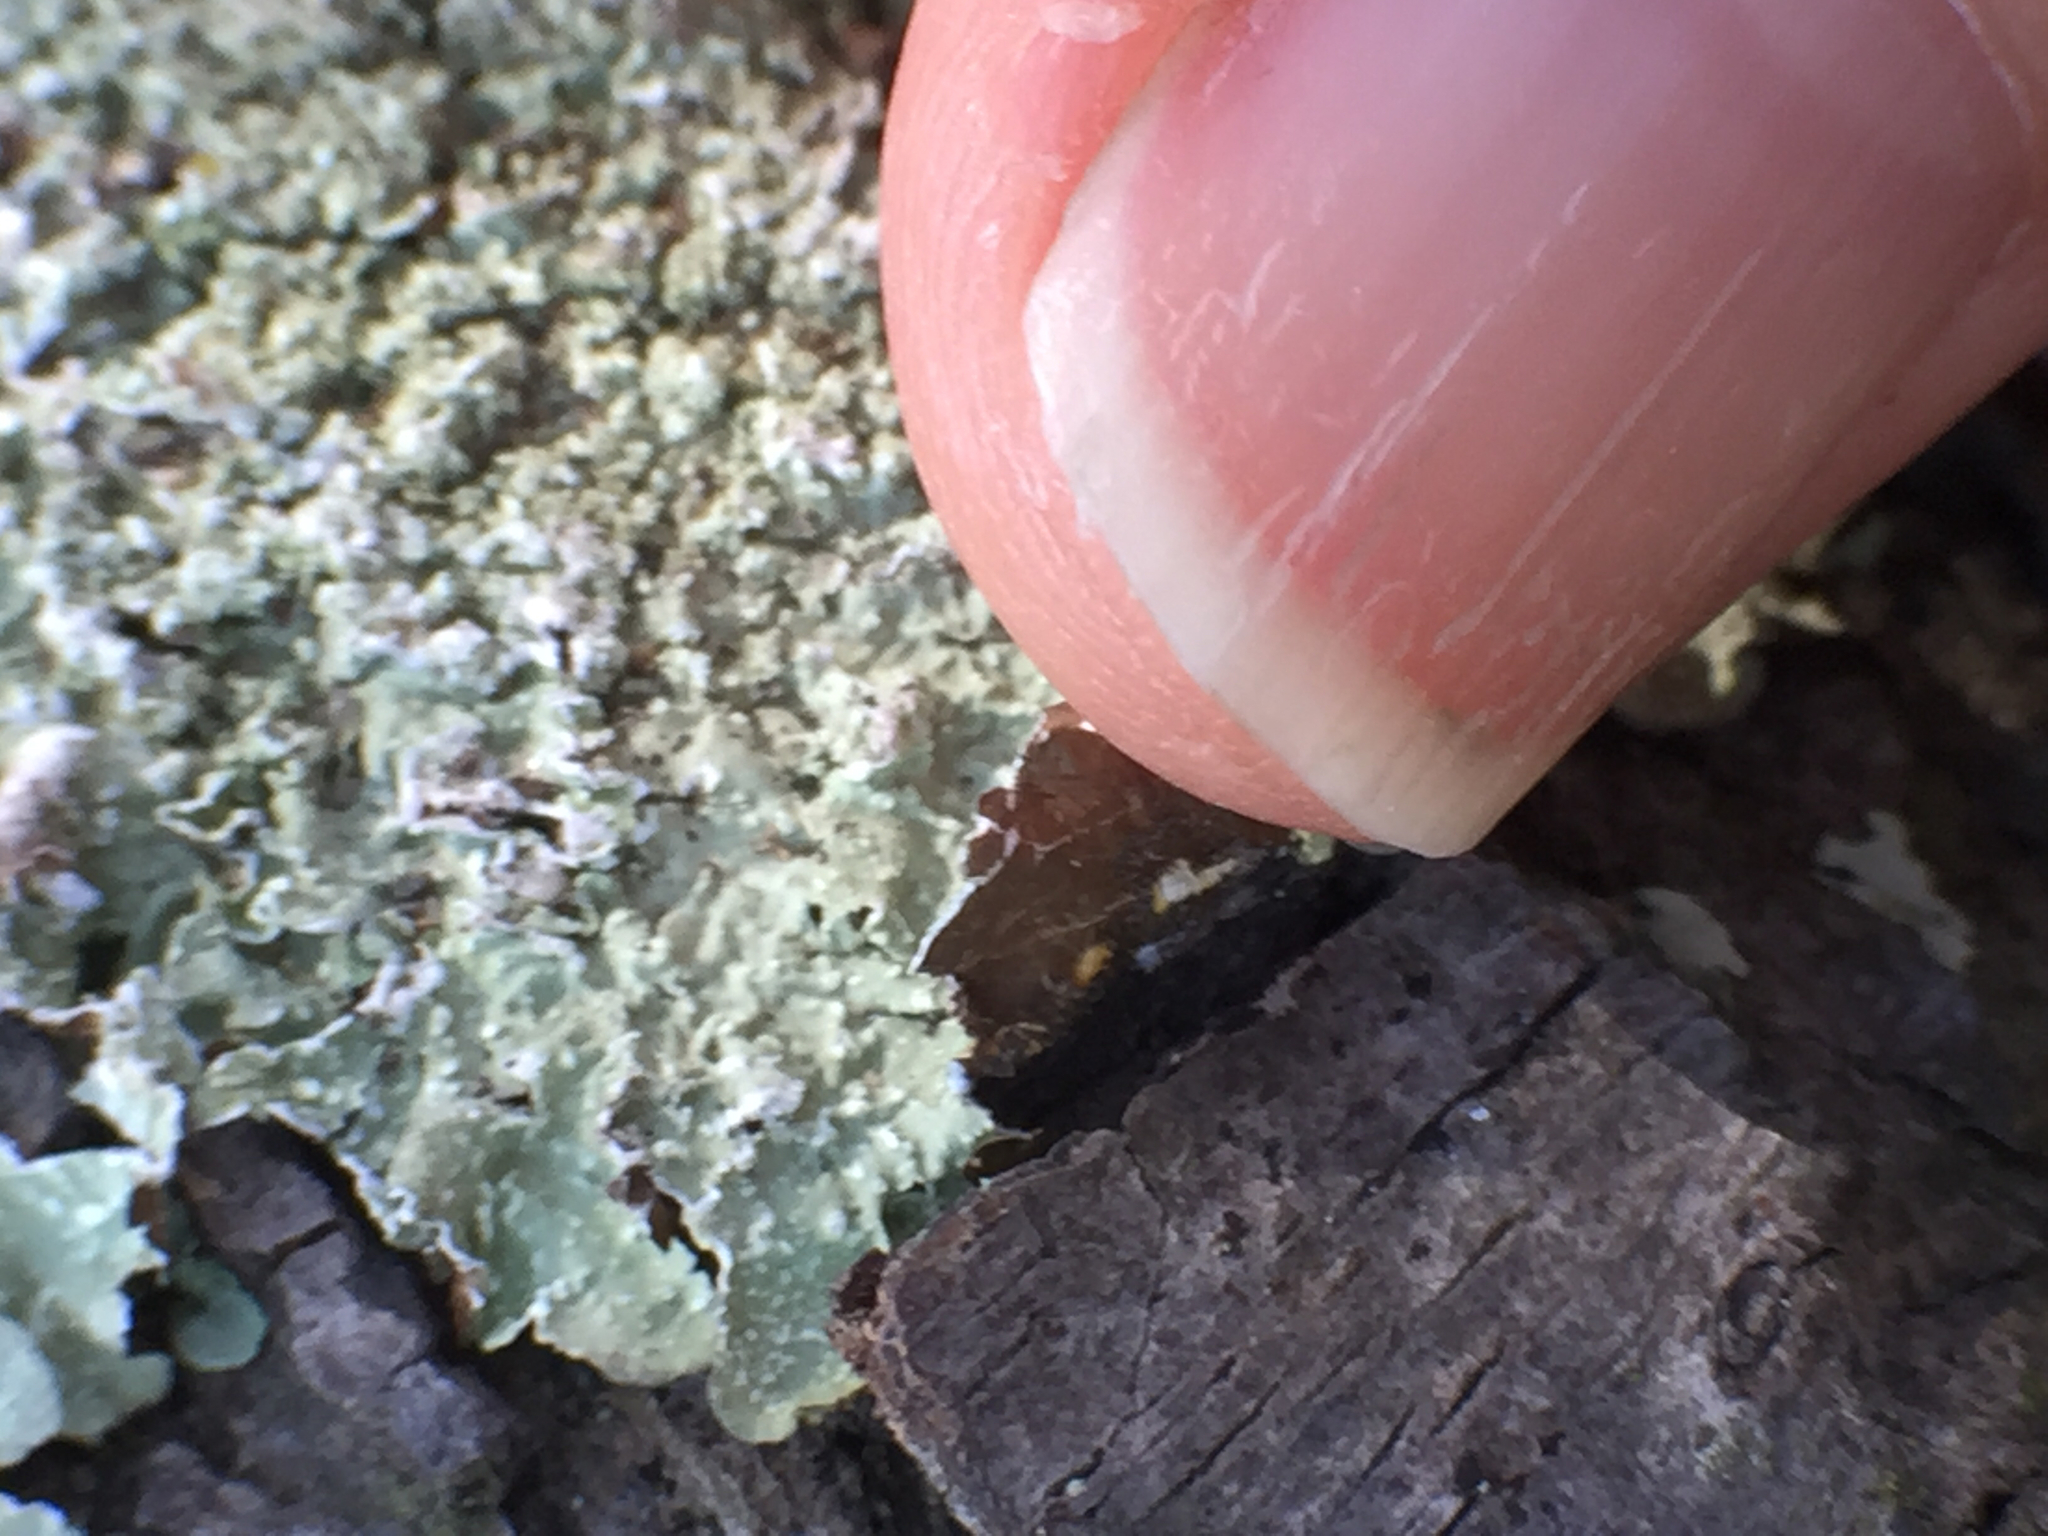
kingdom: Fungi
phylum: Ascomycota
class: Lecanoromycetes
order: Lecanorales
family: Parmeliaceae
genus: Flavopunctelia
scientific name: Flavopunctelia flaventior
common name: Speckled greenshield
